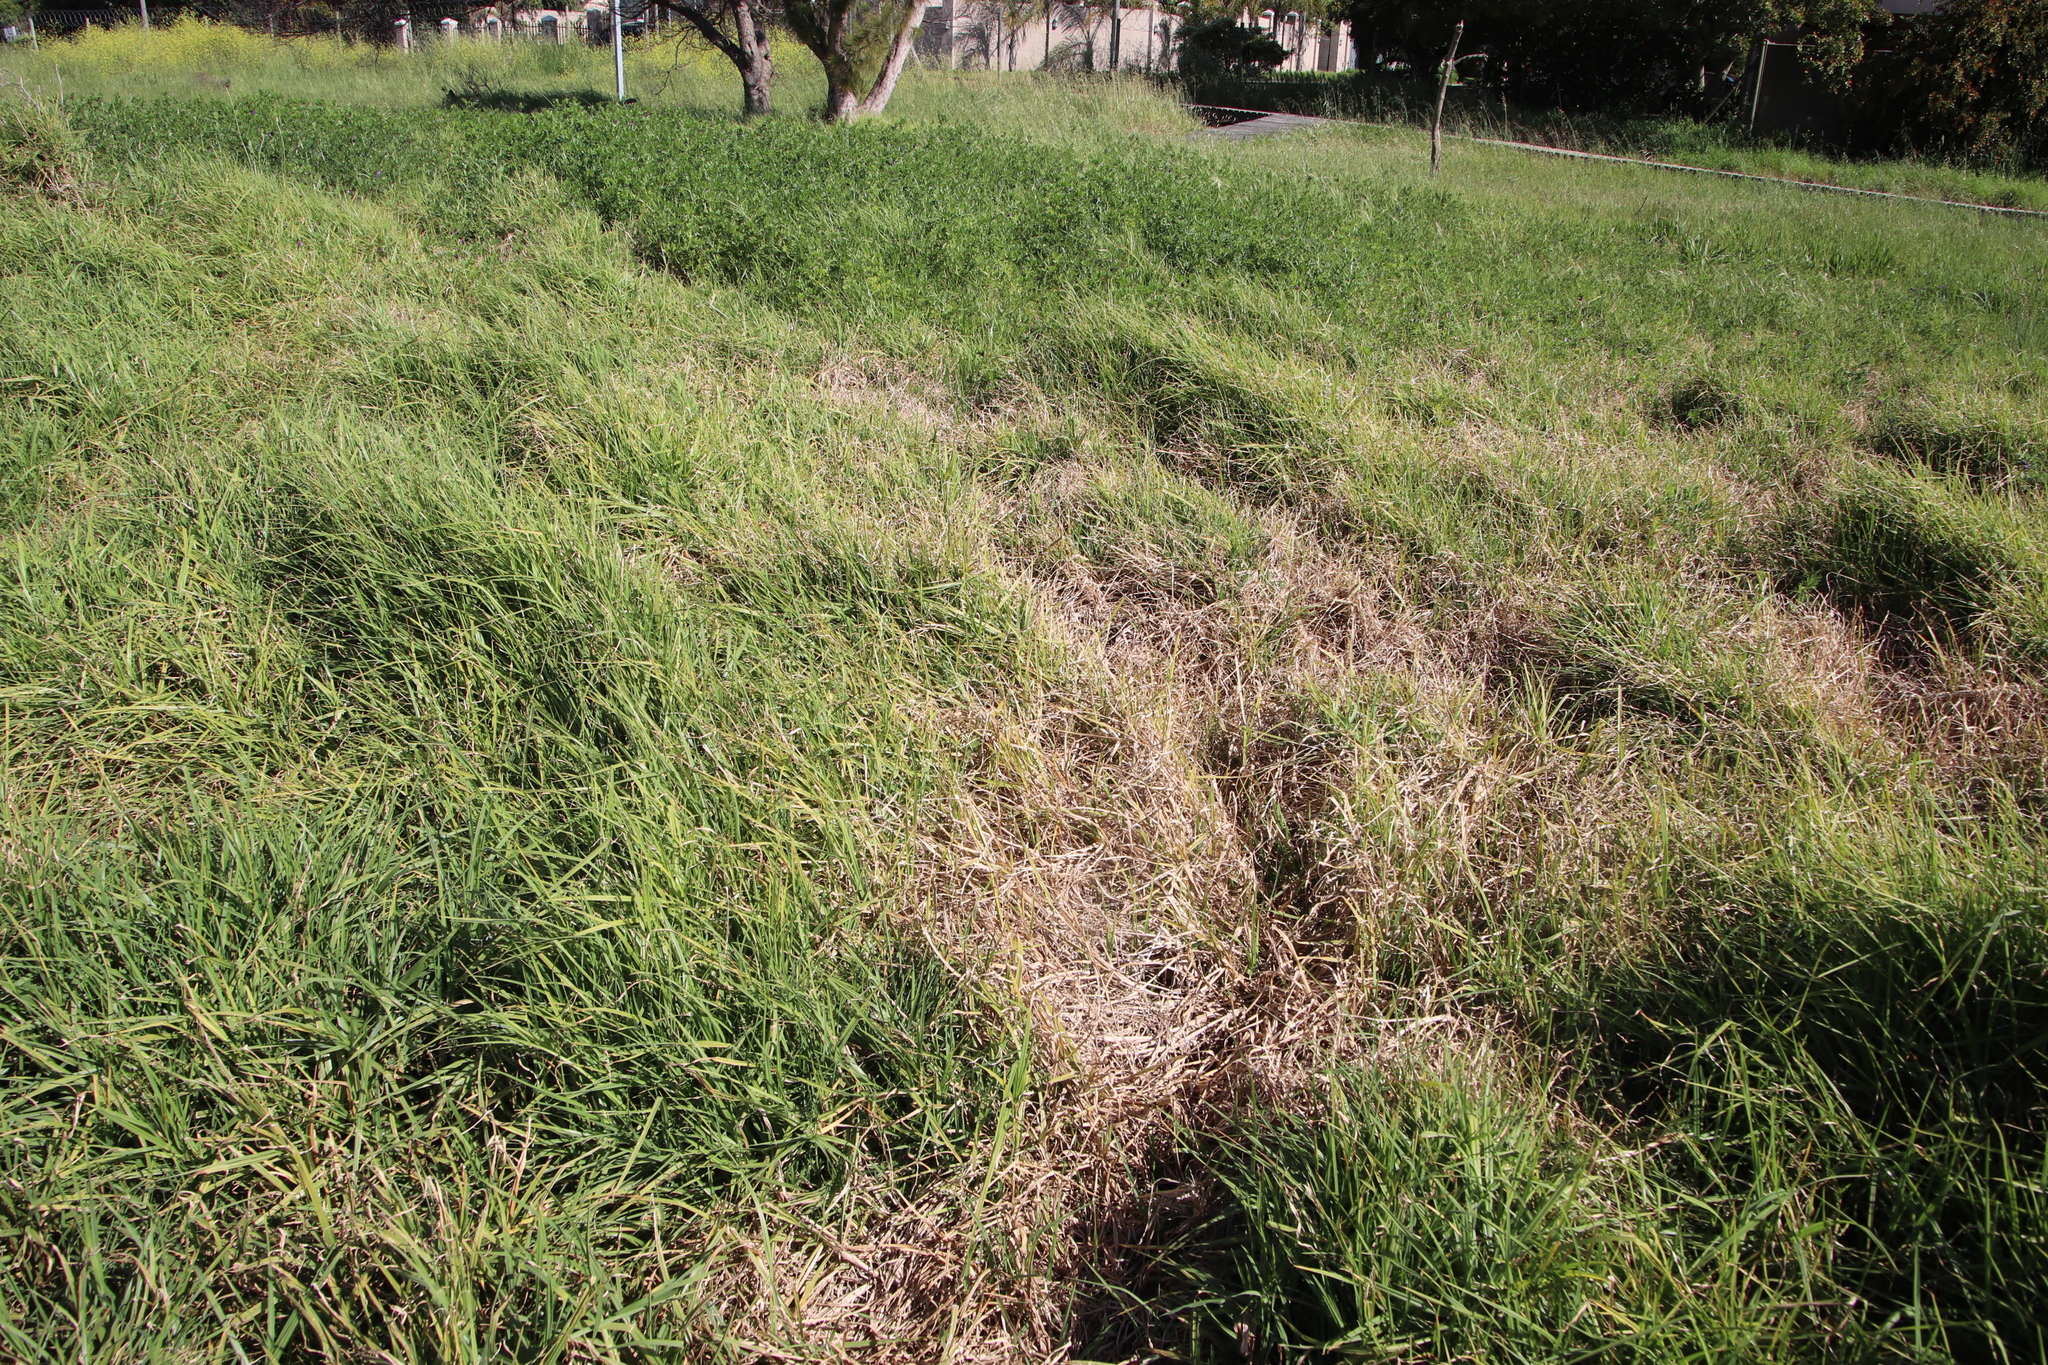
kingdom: Plantae
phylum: Tracheophyta
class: Liliopsida
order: Poales
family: Poaceae
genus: Cenchrus
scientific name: Cenchrus clandestinus
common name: Kikuyugrass
